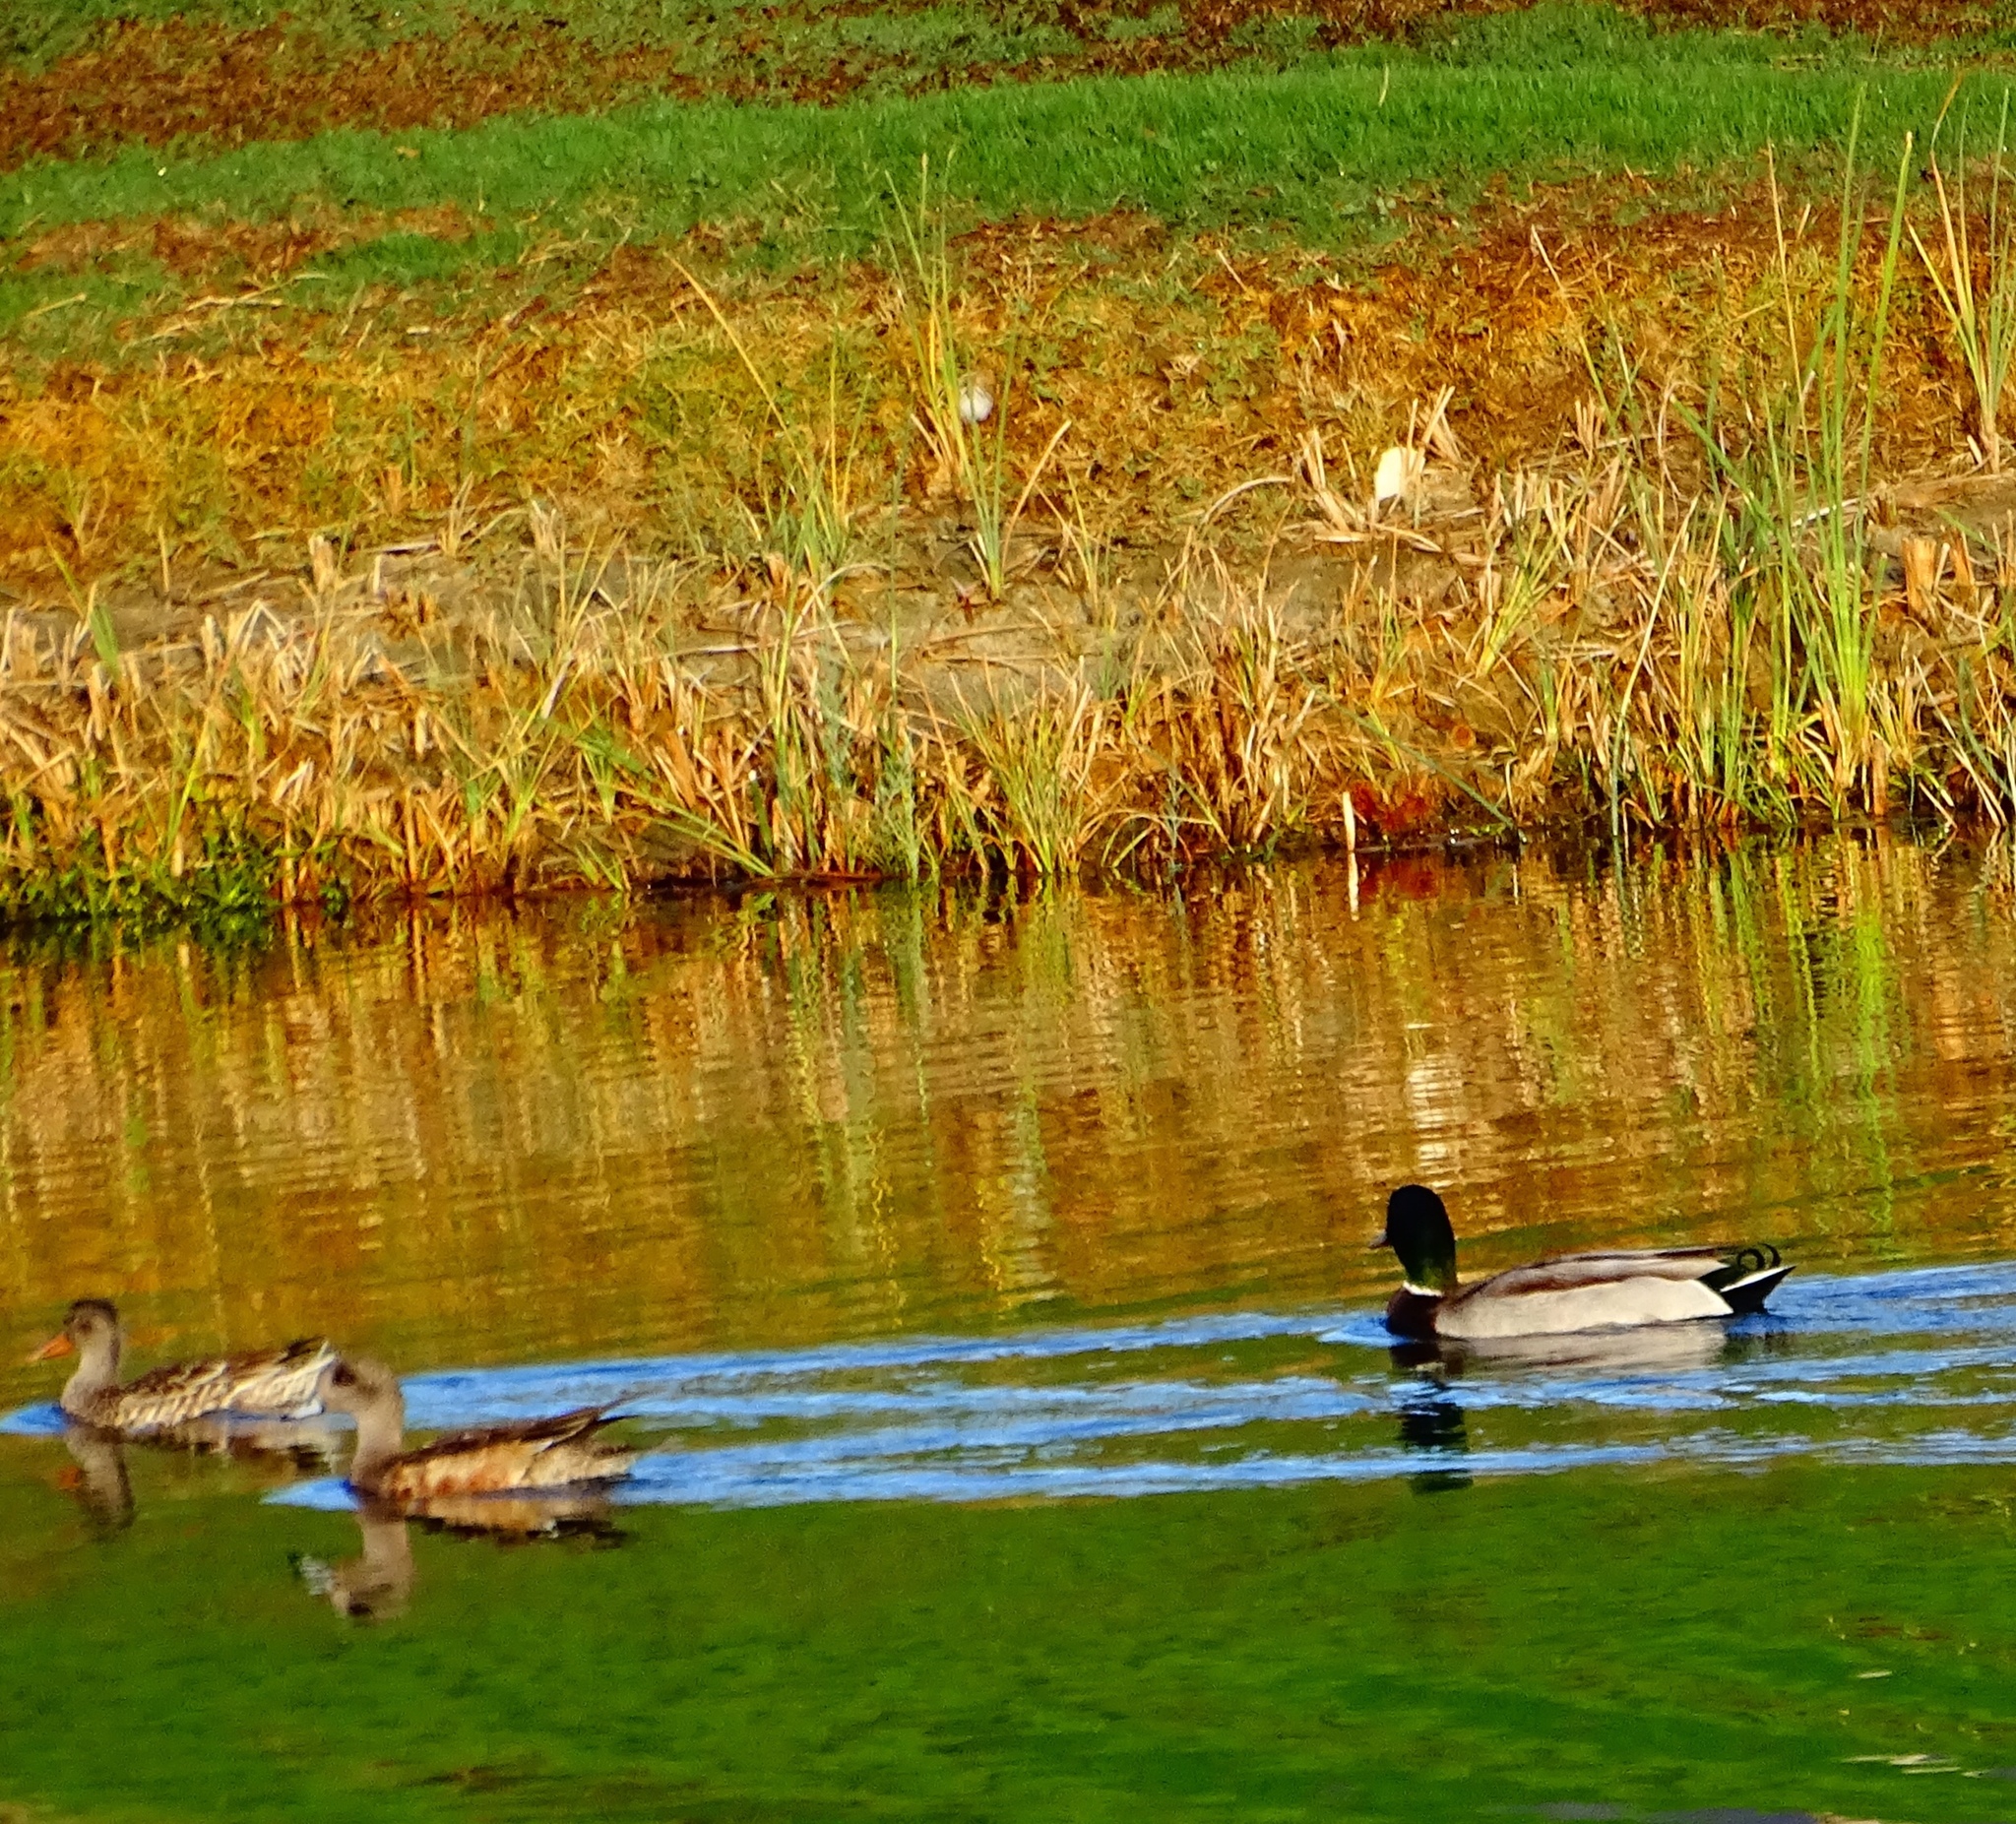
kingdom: Animalia
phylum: Chordata
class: Aves
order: Anseriformes
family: Anatidae
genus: Anas
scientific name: Anas platyrhynchos
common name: Mallard
